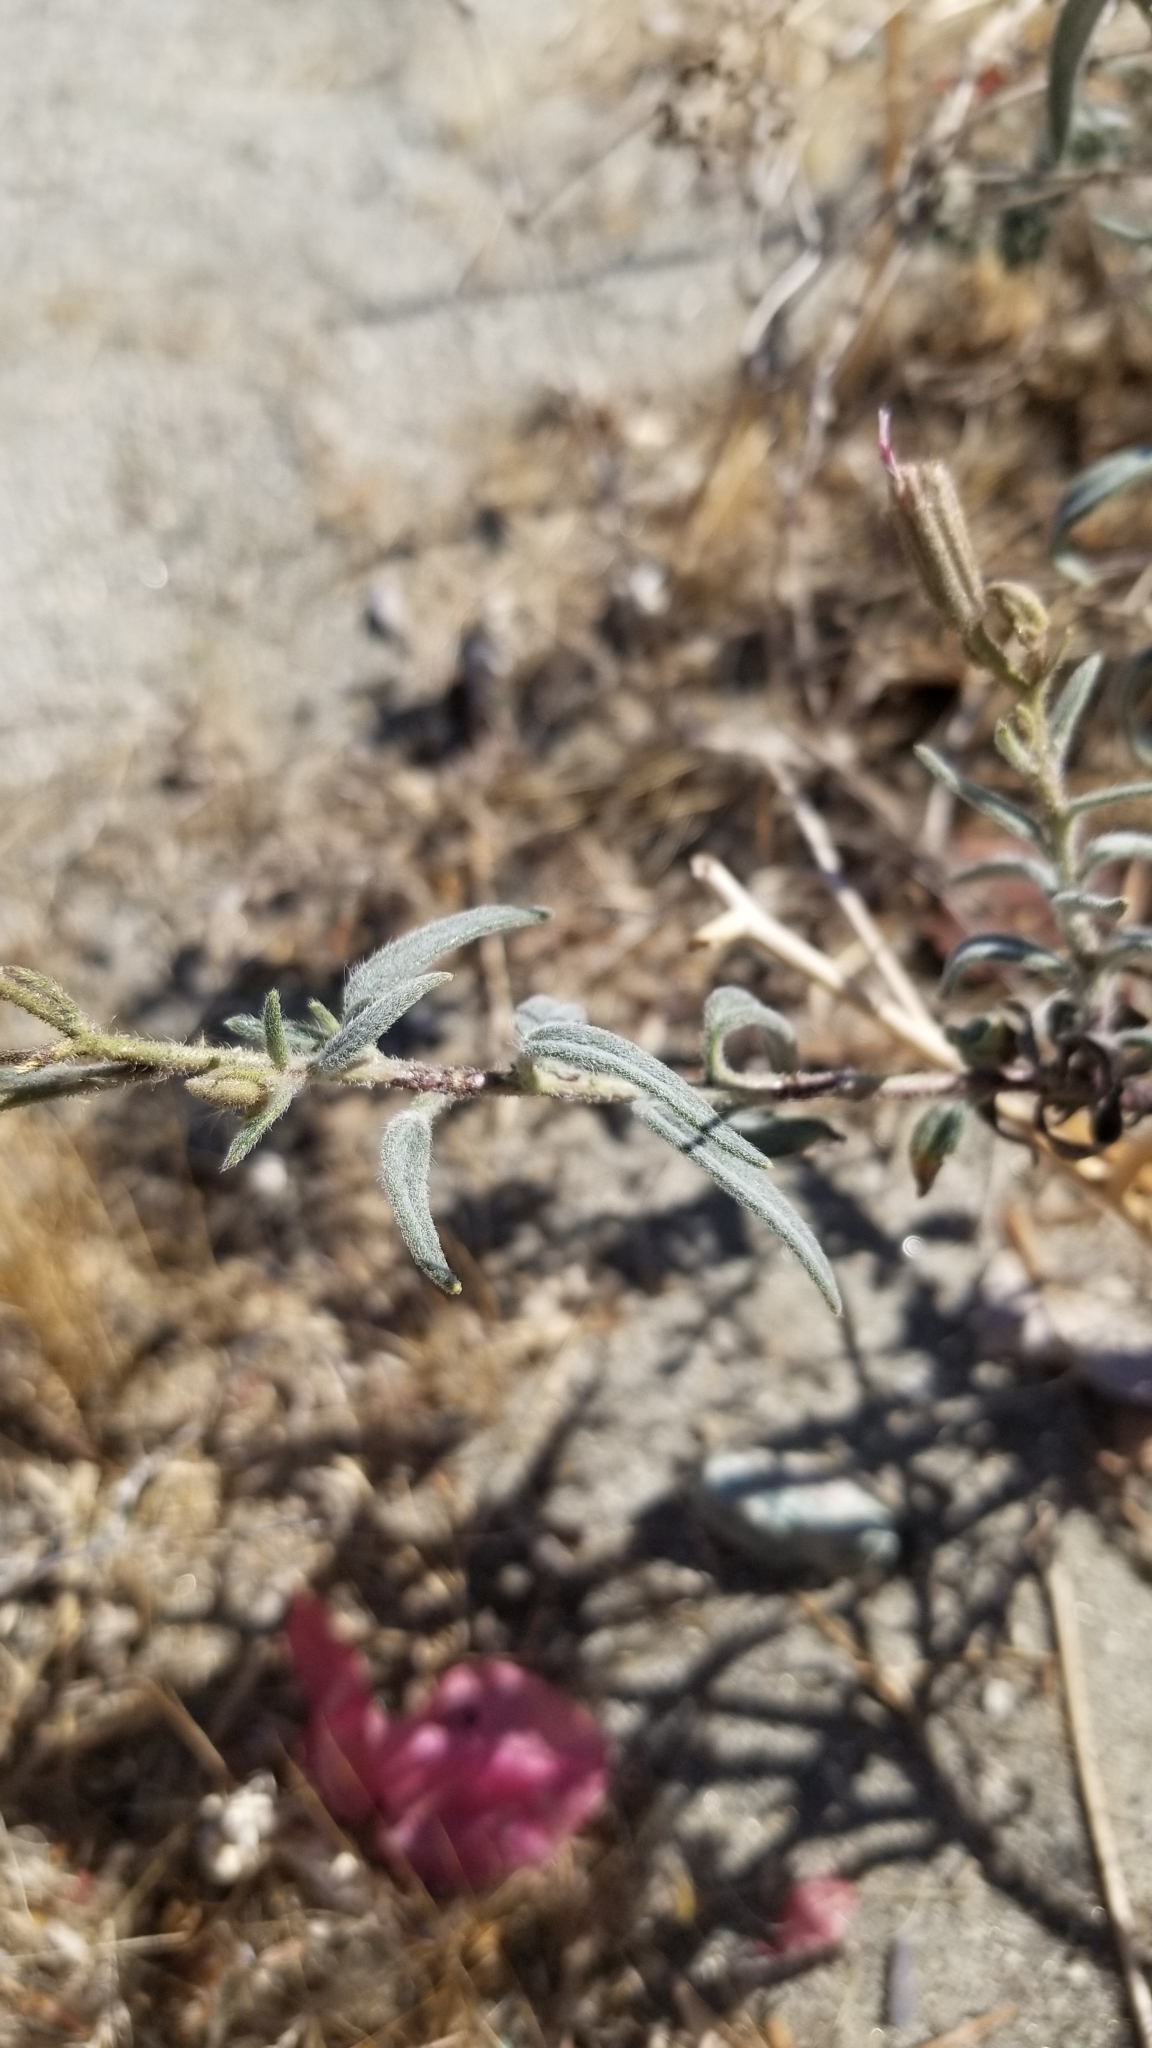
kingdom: Plantae
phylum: Tracheophyta
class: Magnoliopsida
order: Asterales
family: Asteraceae
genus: Palafoxia
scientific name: Palafoxia arida
